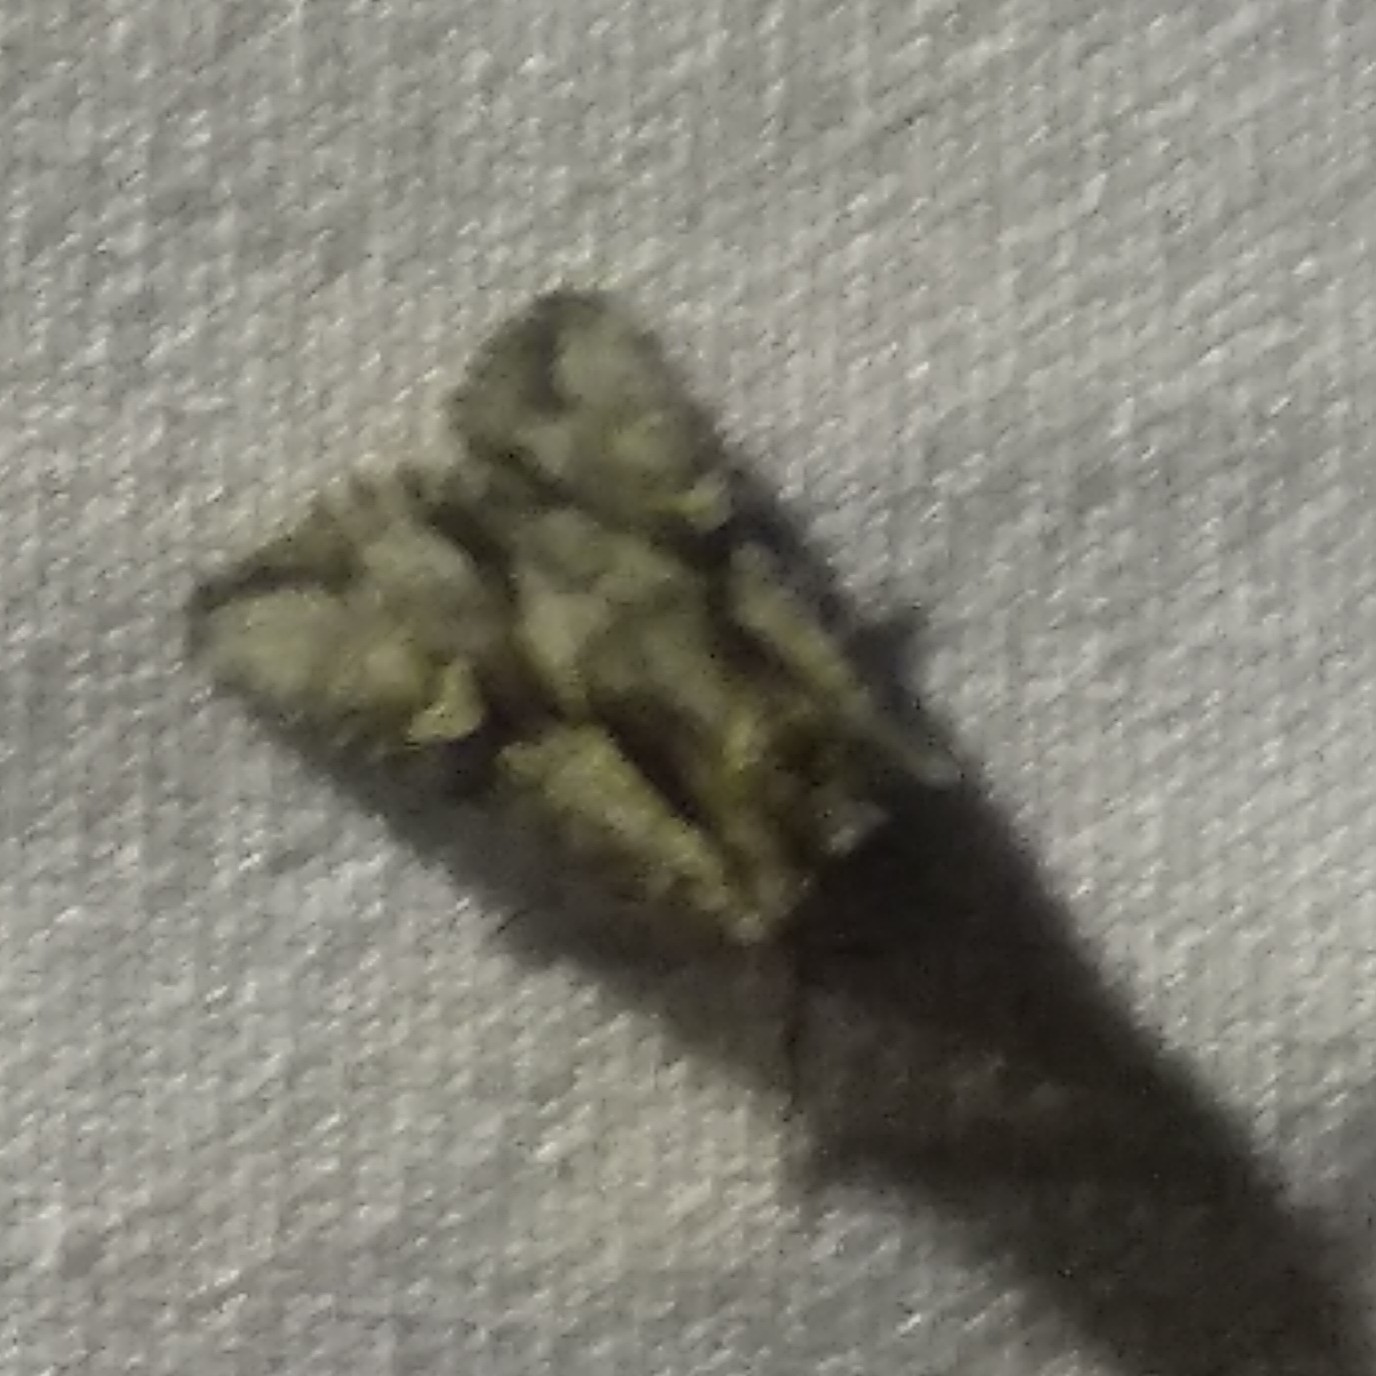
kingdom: Animalia
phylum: Arthropoda
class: Insecta
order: Lepidoptera
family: Noctuidae
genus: Chloantha
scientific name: Chloantha hyperici
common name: Pale-shouldered cloud
